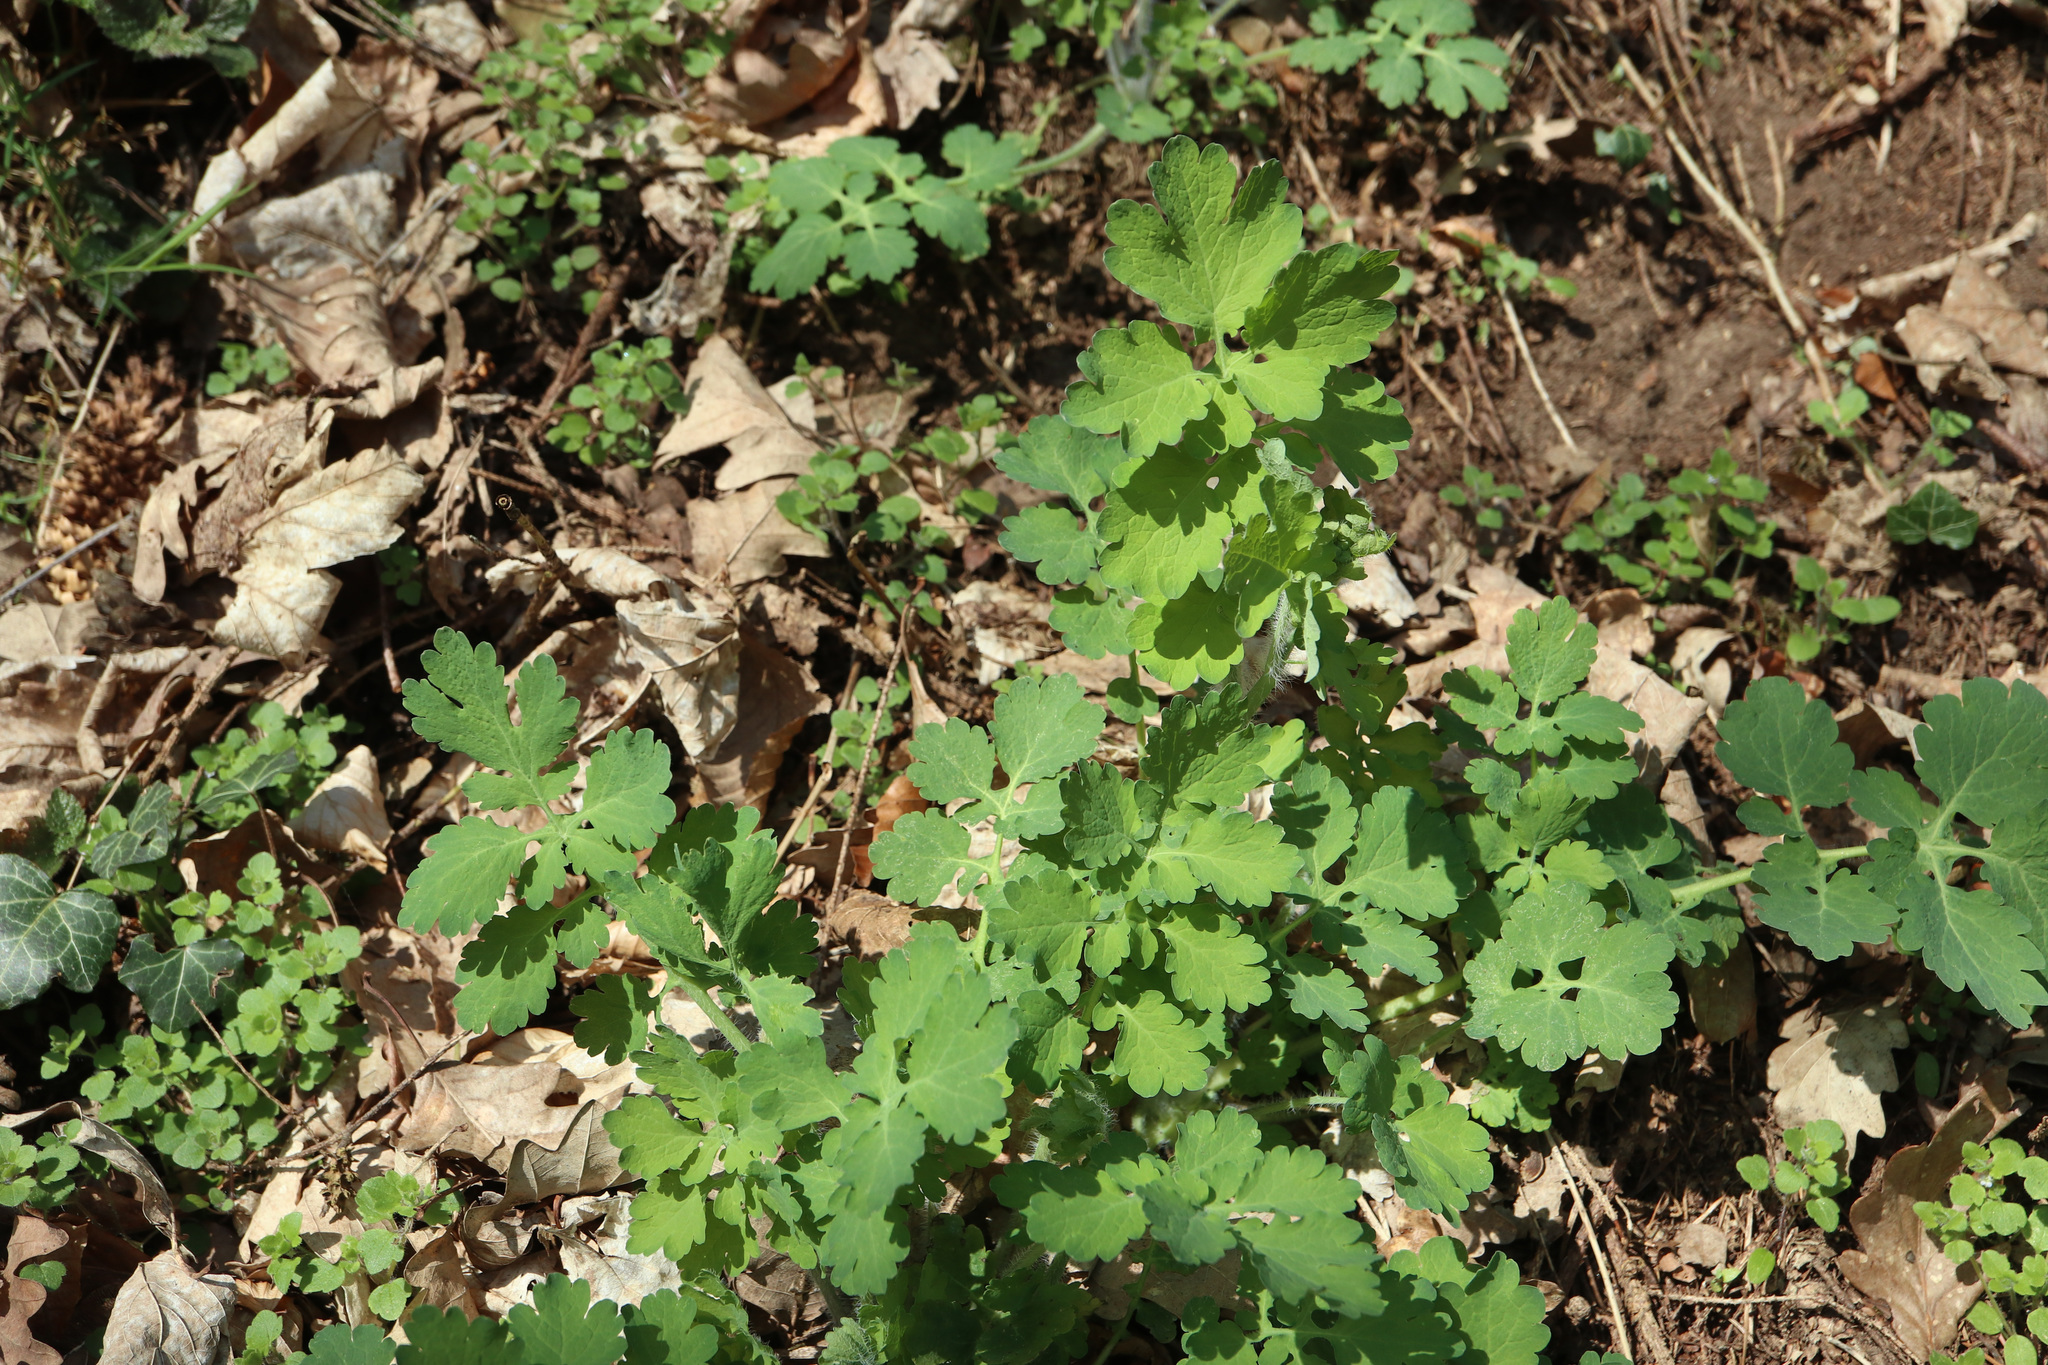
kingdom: Plantae
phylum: Tracheophyta
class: Magnoliopsida
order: Ranunculales
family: Papaveraceae
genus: Chelidonium
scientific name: Chelidonium majus
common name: Greater celandine
